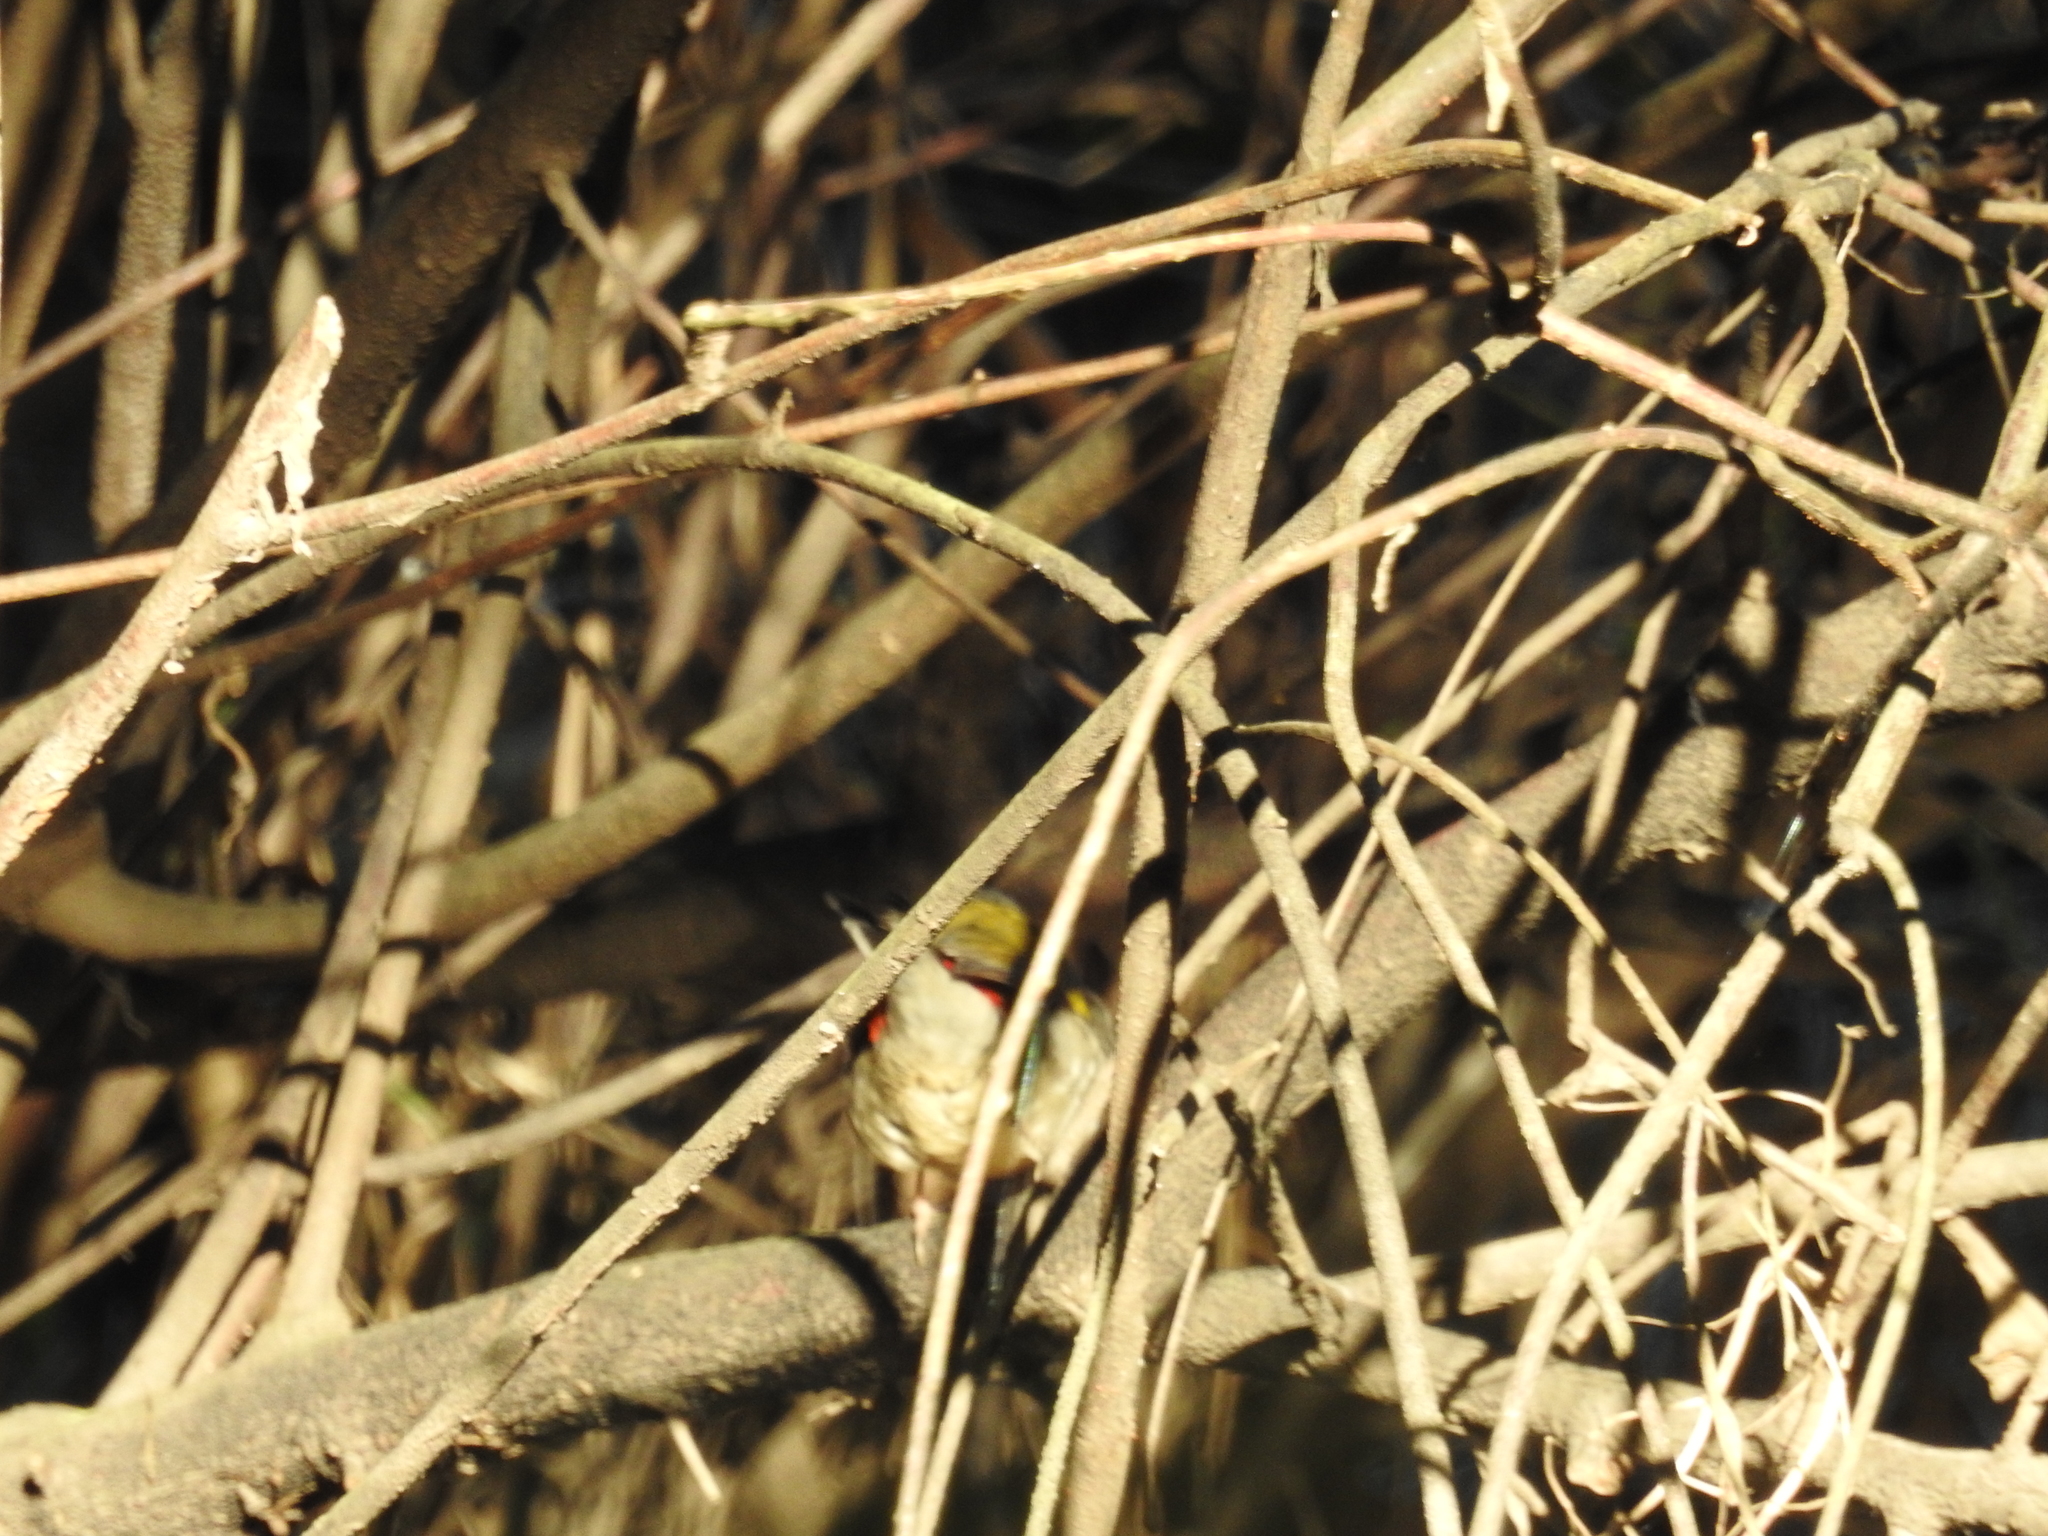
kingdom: Animalia
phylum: Chordata
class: Aves
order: Passeriformes
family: Estrildidae
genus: Neochmia
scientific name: Neochmia temporalis
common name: Red-browed finch
